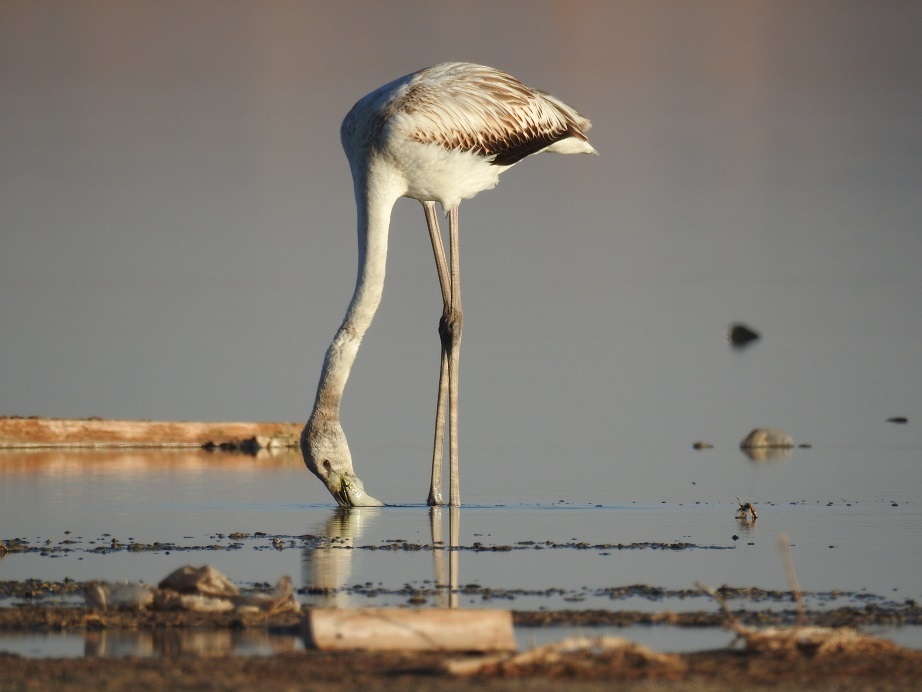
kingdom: Animalia
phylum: Chordata
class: Aves
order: Phoenicopteriformes
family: Phoenicopteridae
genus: Phoenicopterus
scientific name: Phoenicopterus roseus
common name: Greater flamingo
